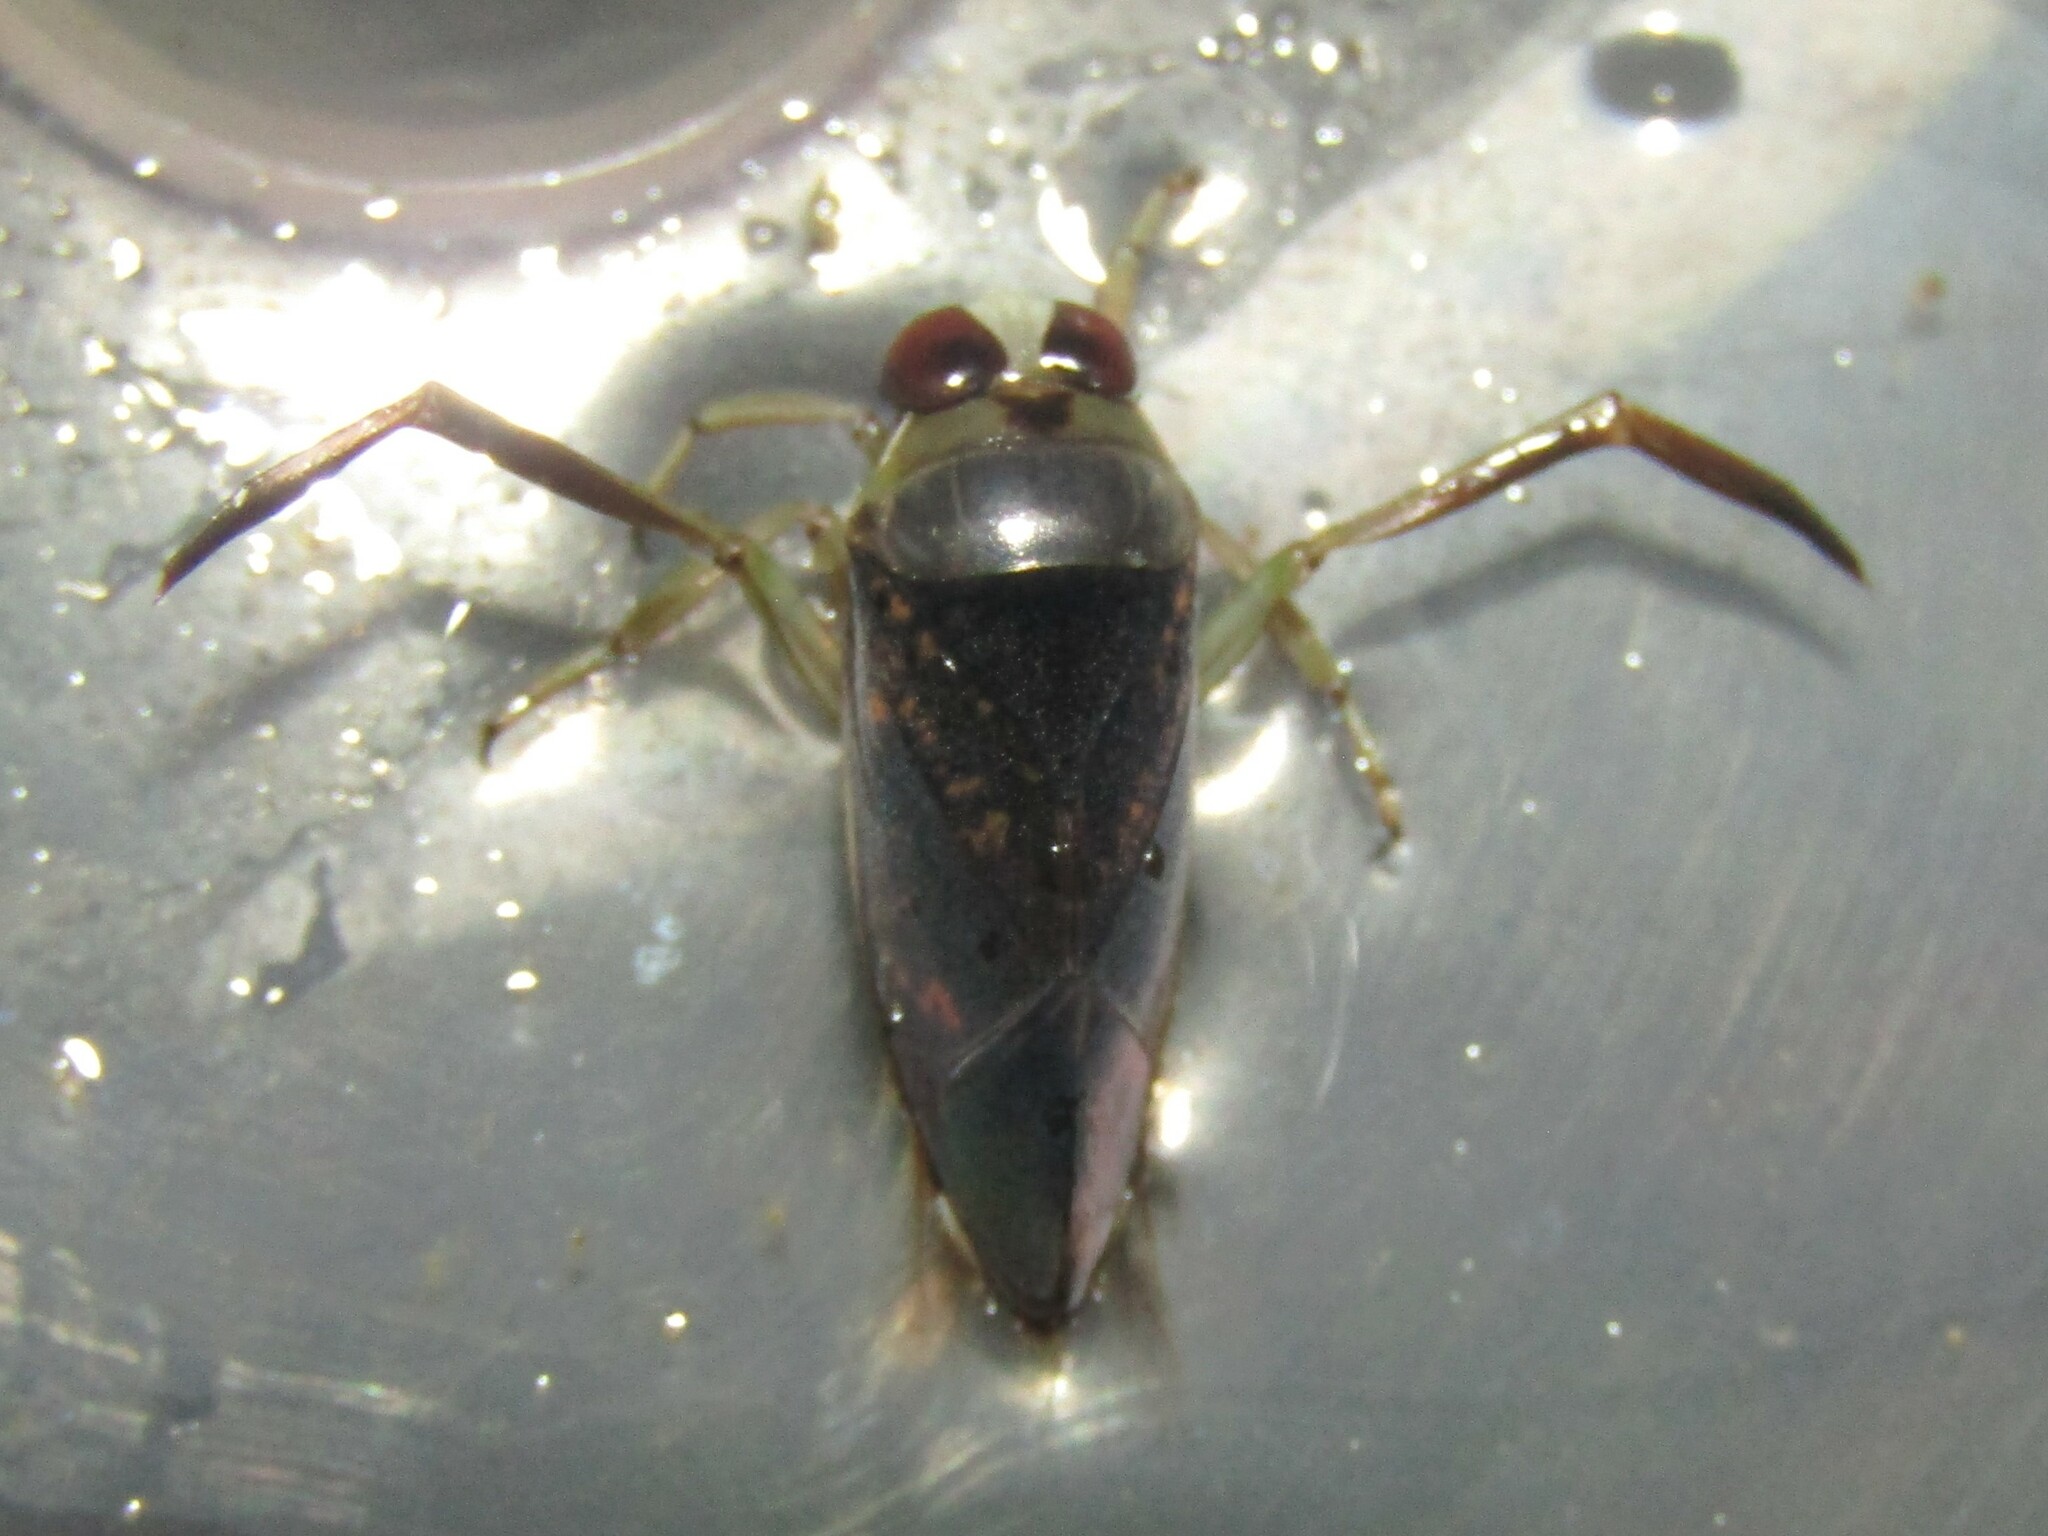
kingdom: Animalia
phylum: Arthropoda
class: Insecta
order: Hemiptera
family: Notonectidae
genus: Notonecta
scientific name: Notonecta irrorata
